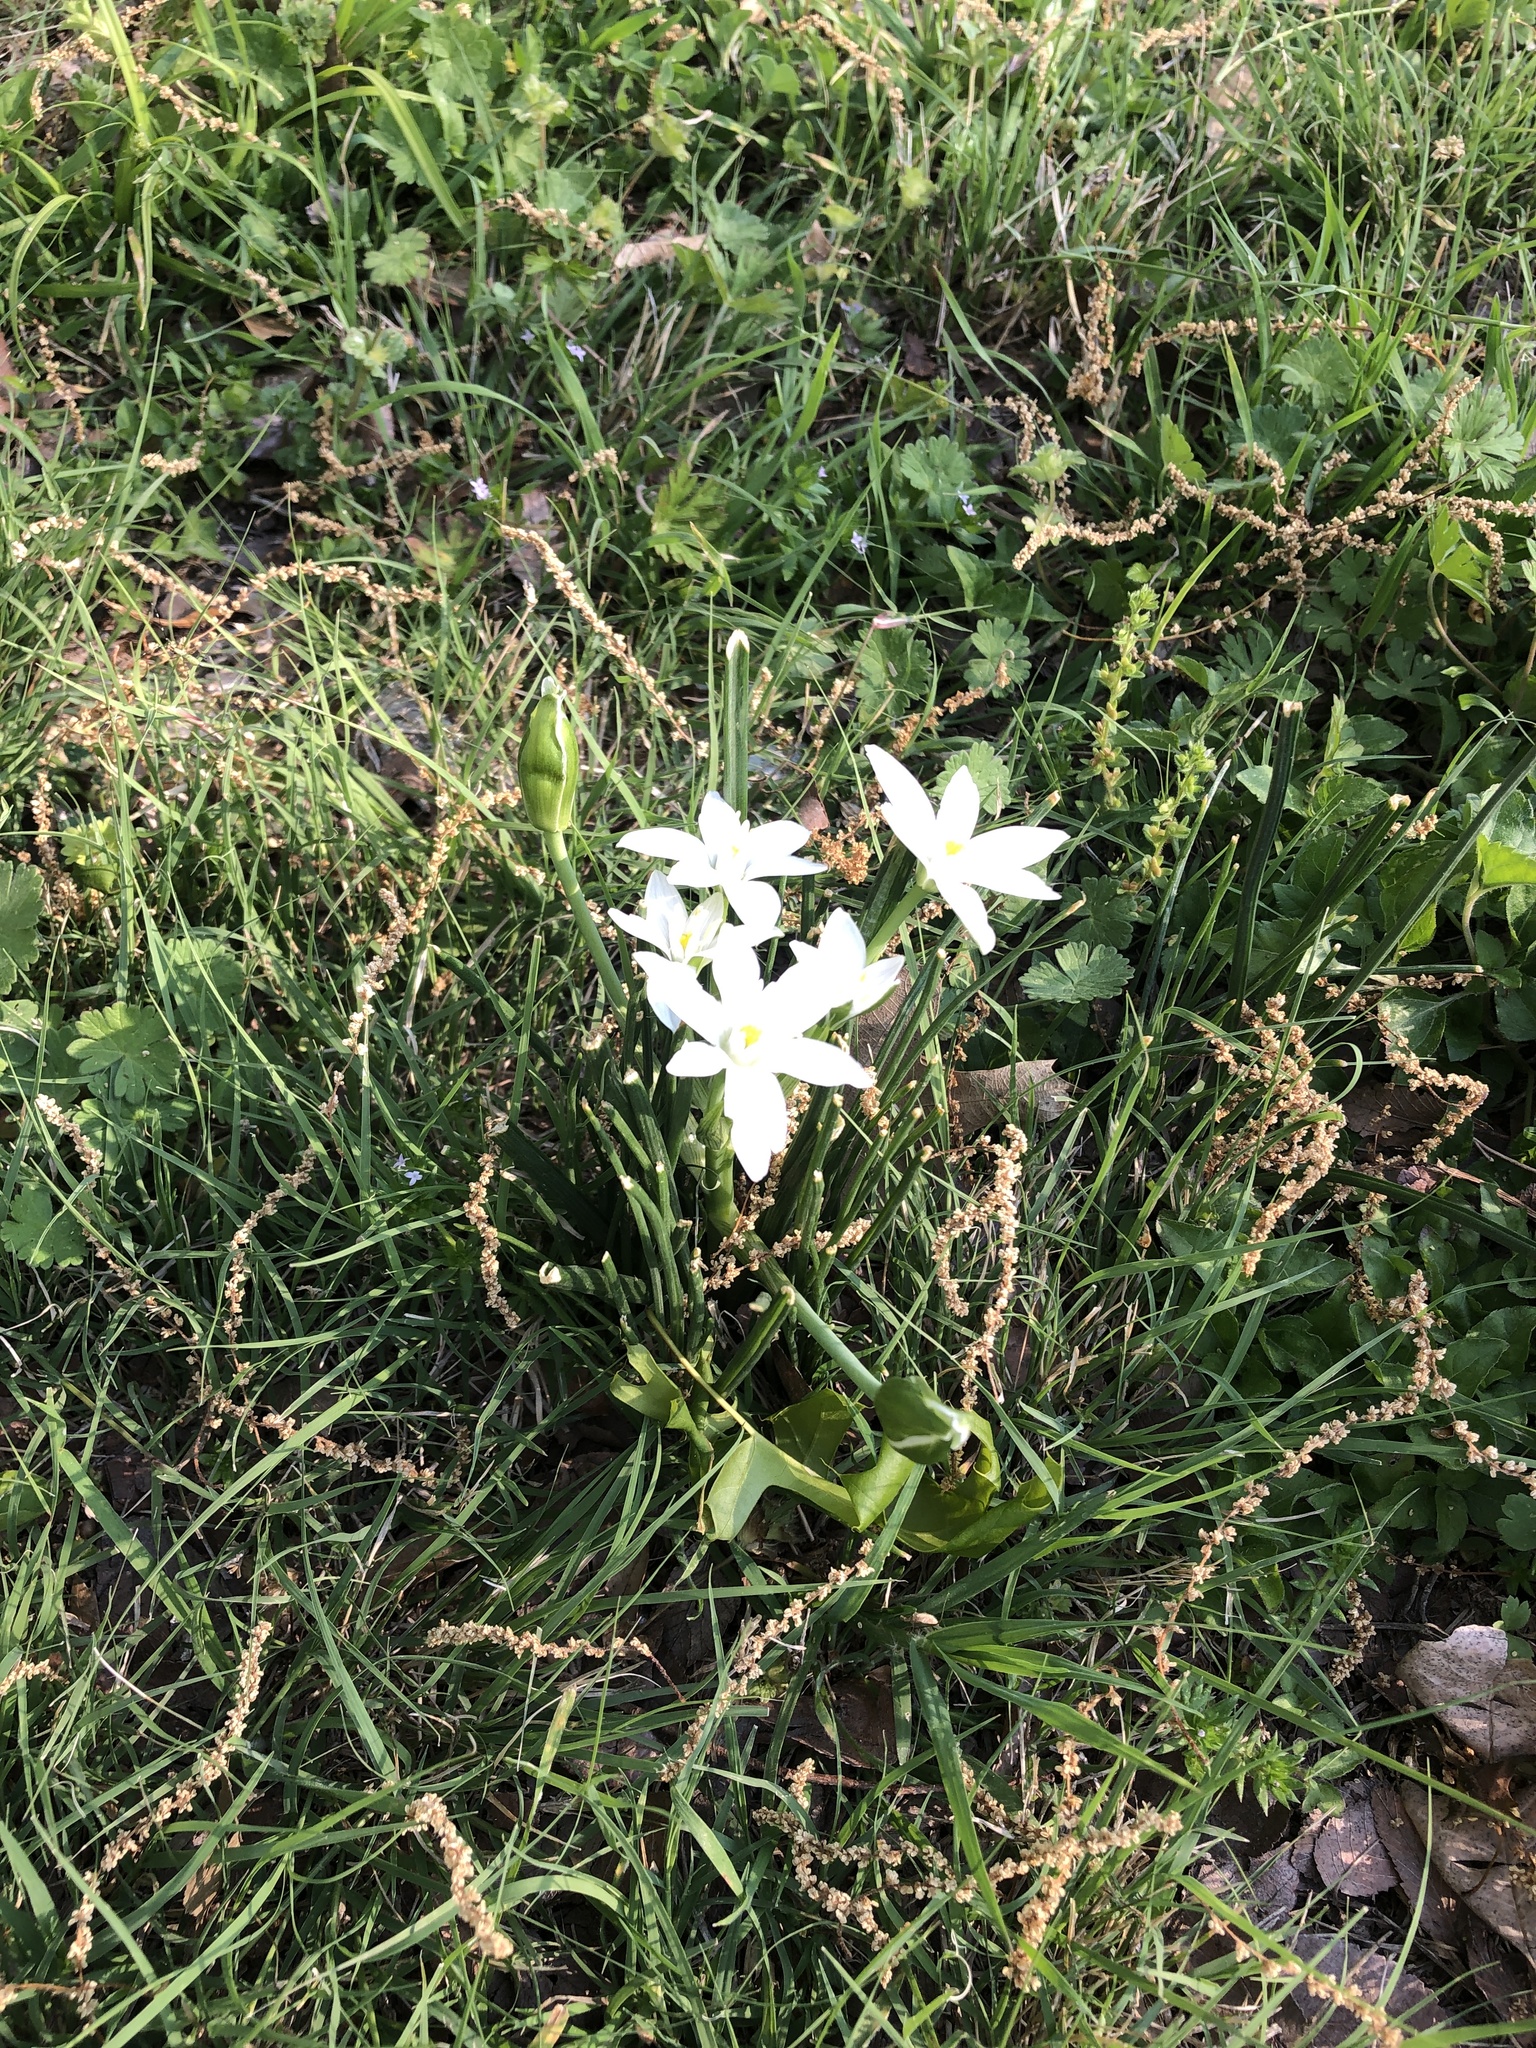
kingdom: Plantae
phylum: Tracheophyta
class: Liliopsida
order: Asparagales
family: Asparagaceae
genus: Ornithogalum
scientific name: Ornithogalum umbellatum
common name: Garden star-of-bethlehem
